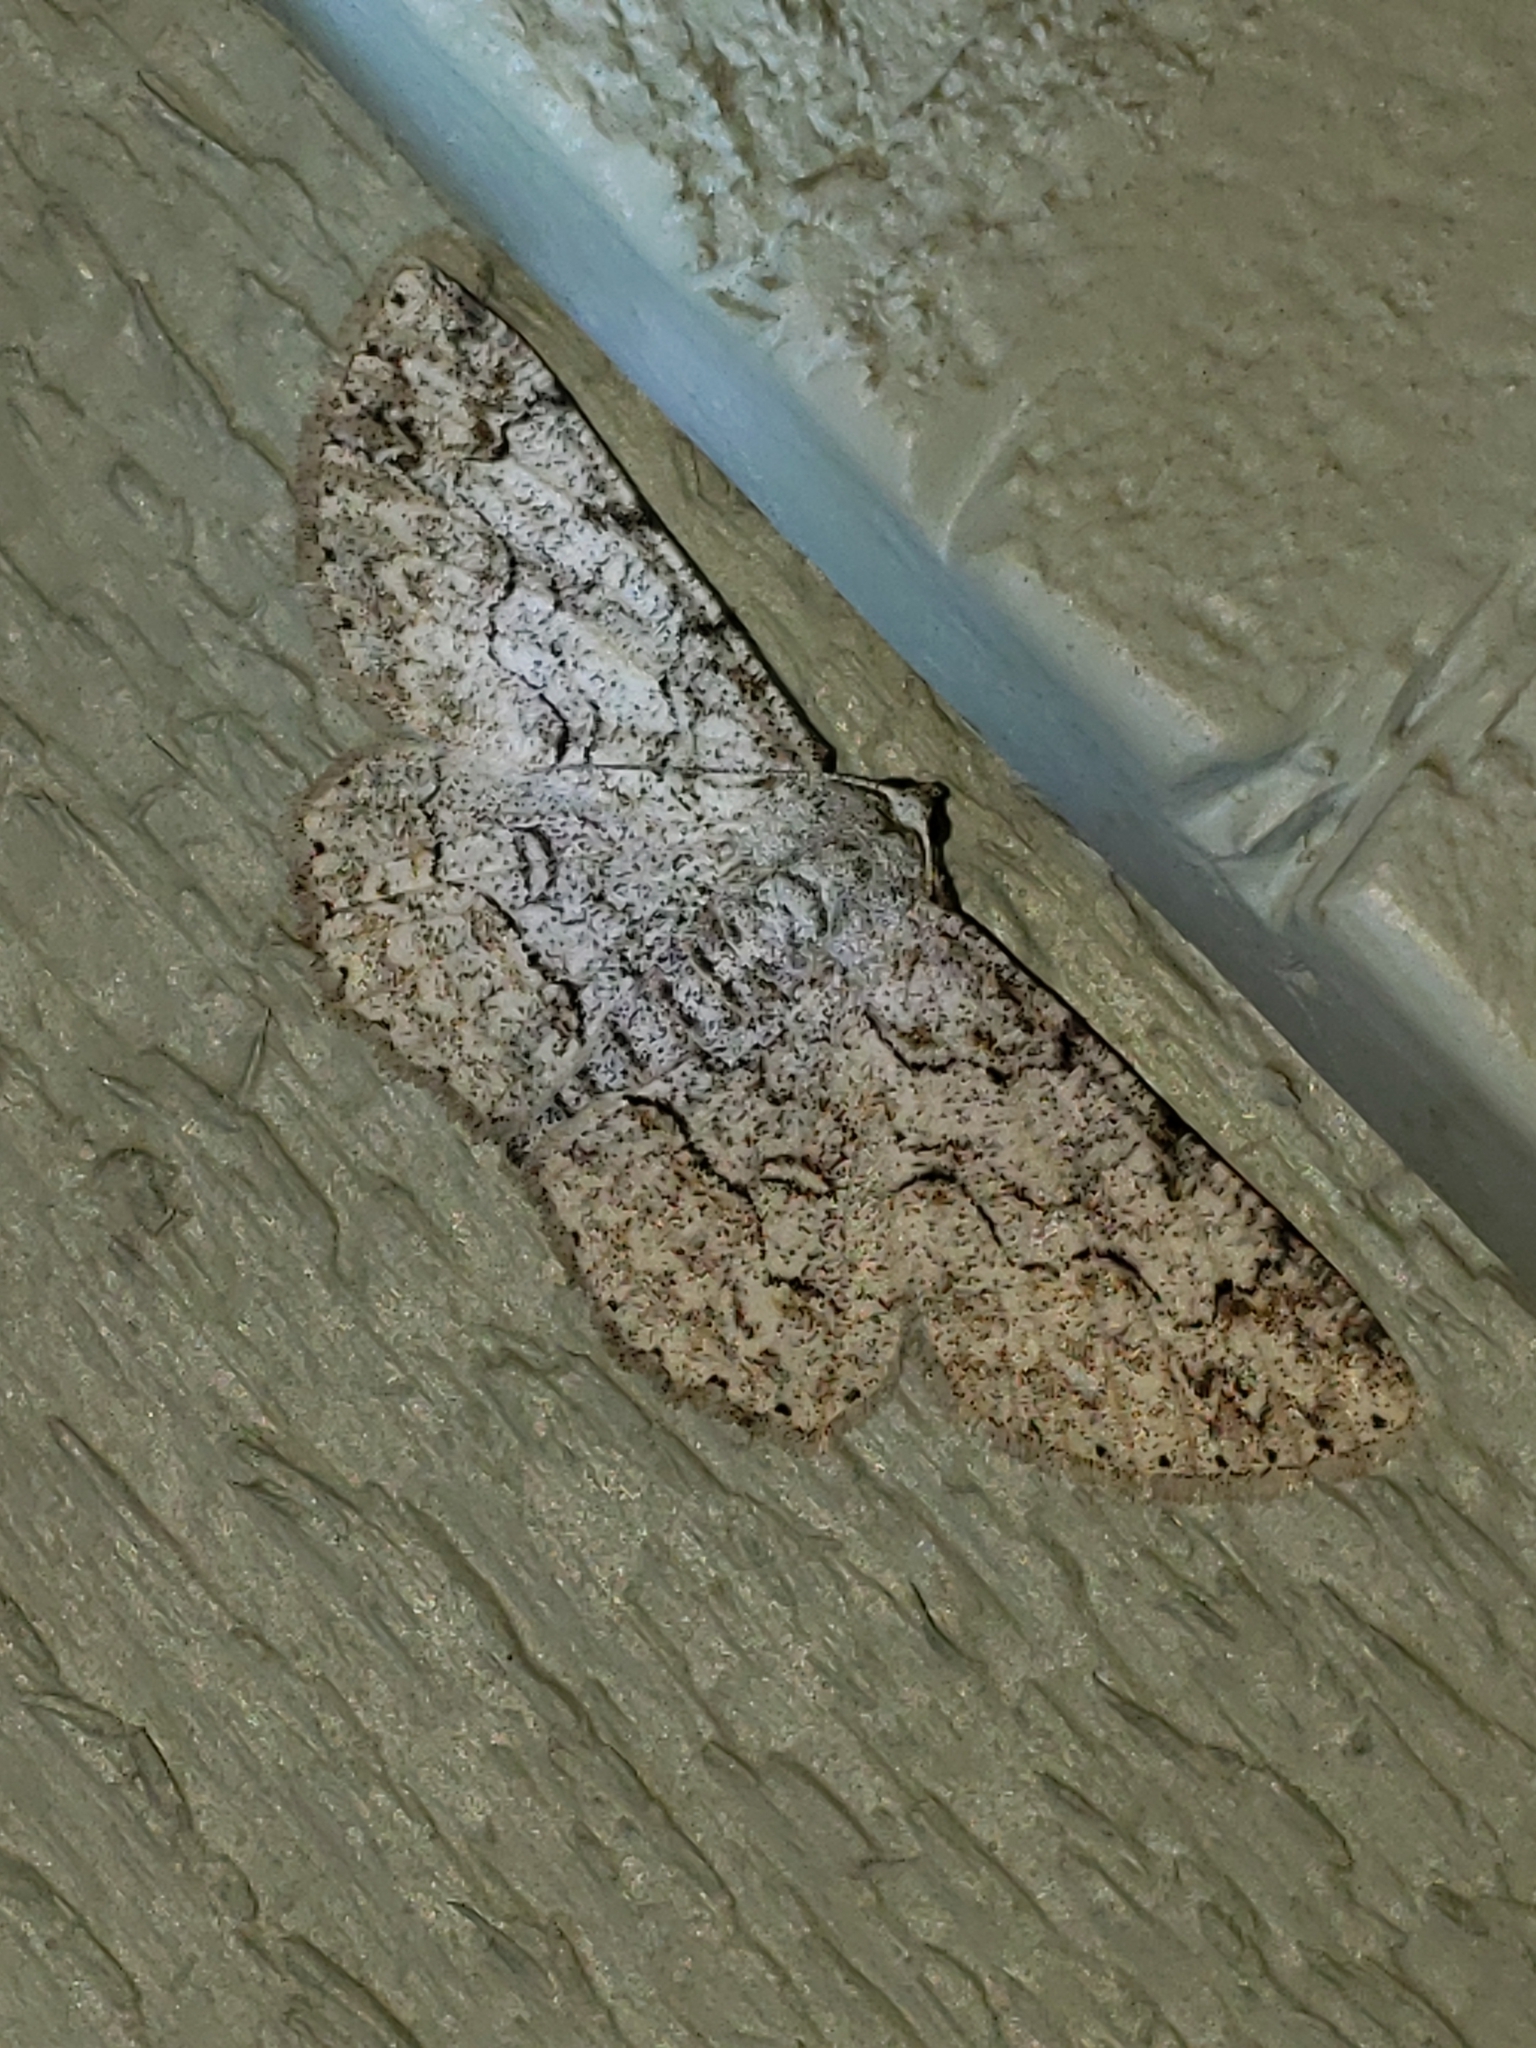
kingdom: Animalia
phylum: Arthropoda
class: Insecta
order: Lepidoptera
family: Geometridae
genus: Iridopsis
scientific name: Iridopsis defectaria
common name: Brown-shaded gray
